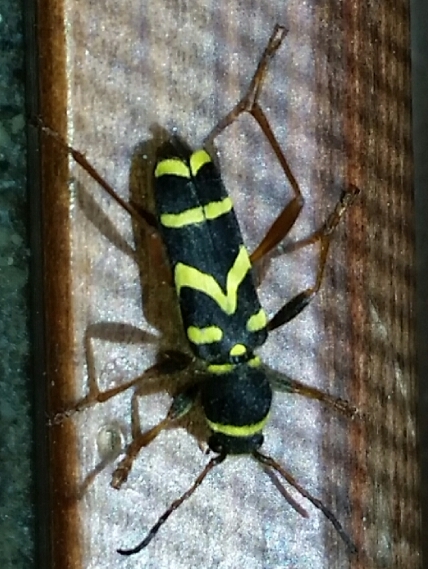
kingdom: Animalia
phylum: Arthropoda
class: Insecta
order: Coleoptera
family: Cerambycidae
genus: Clytus
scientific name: Clytus arietis
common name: Wasp beetle
